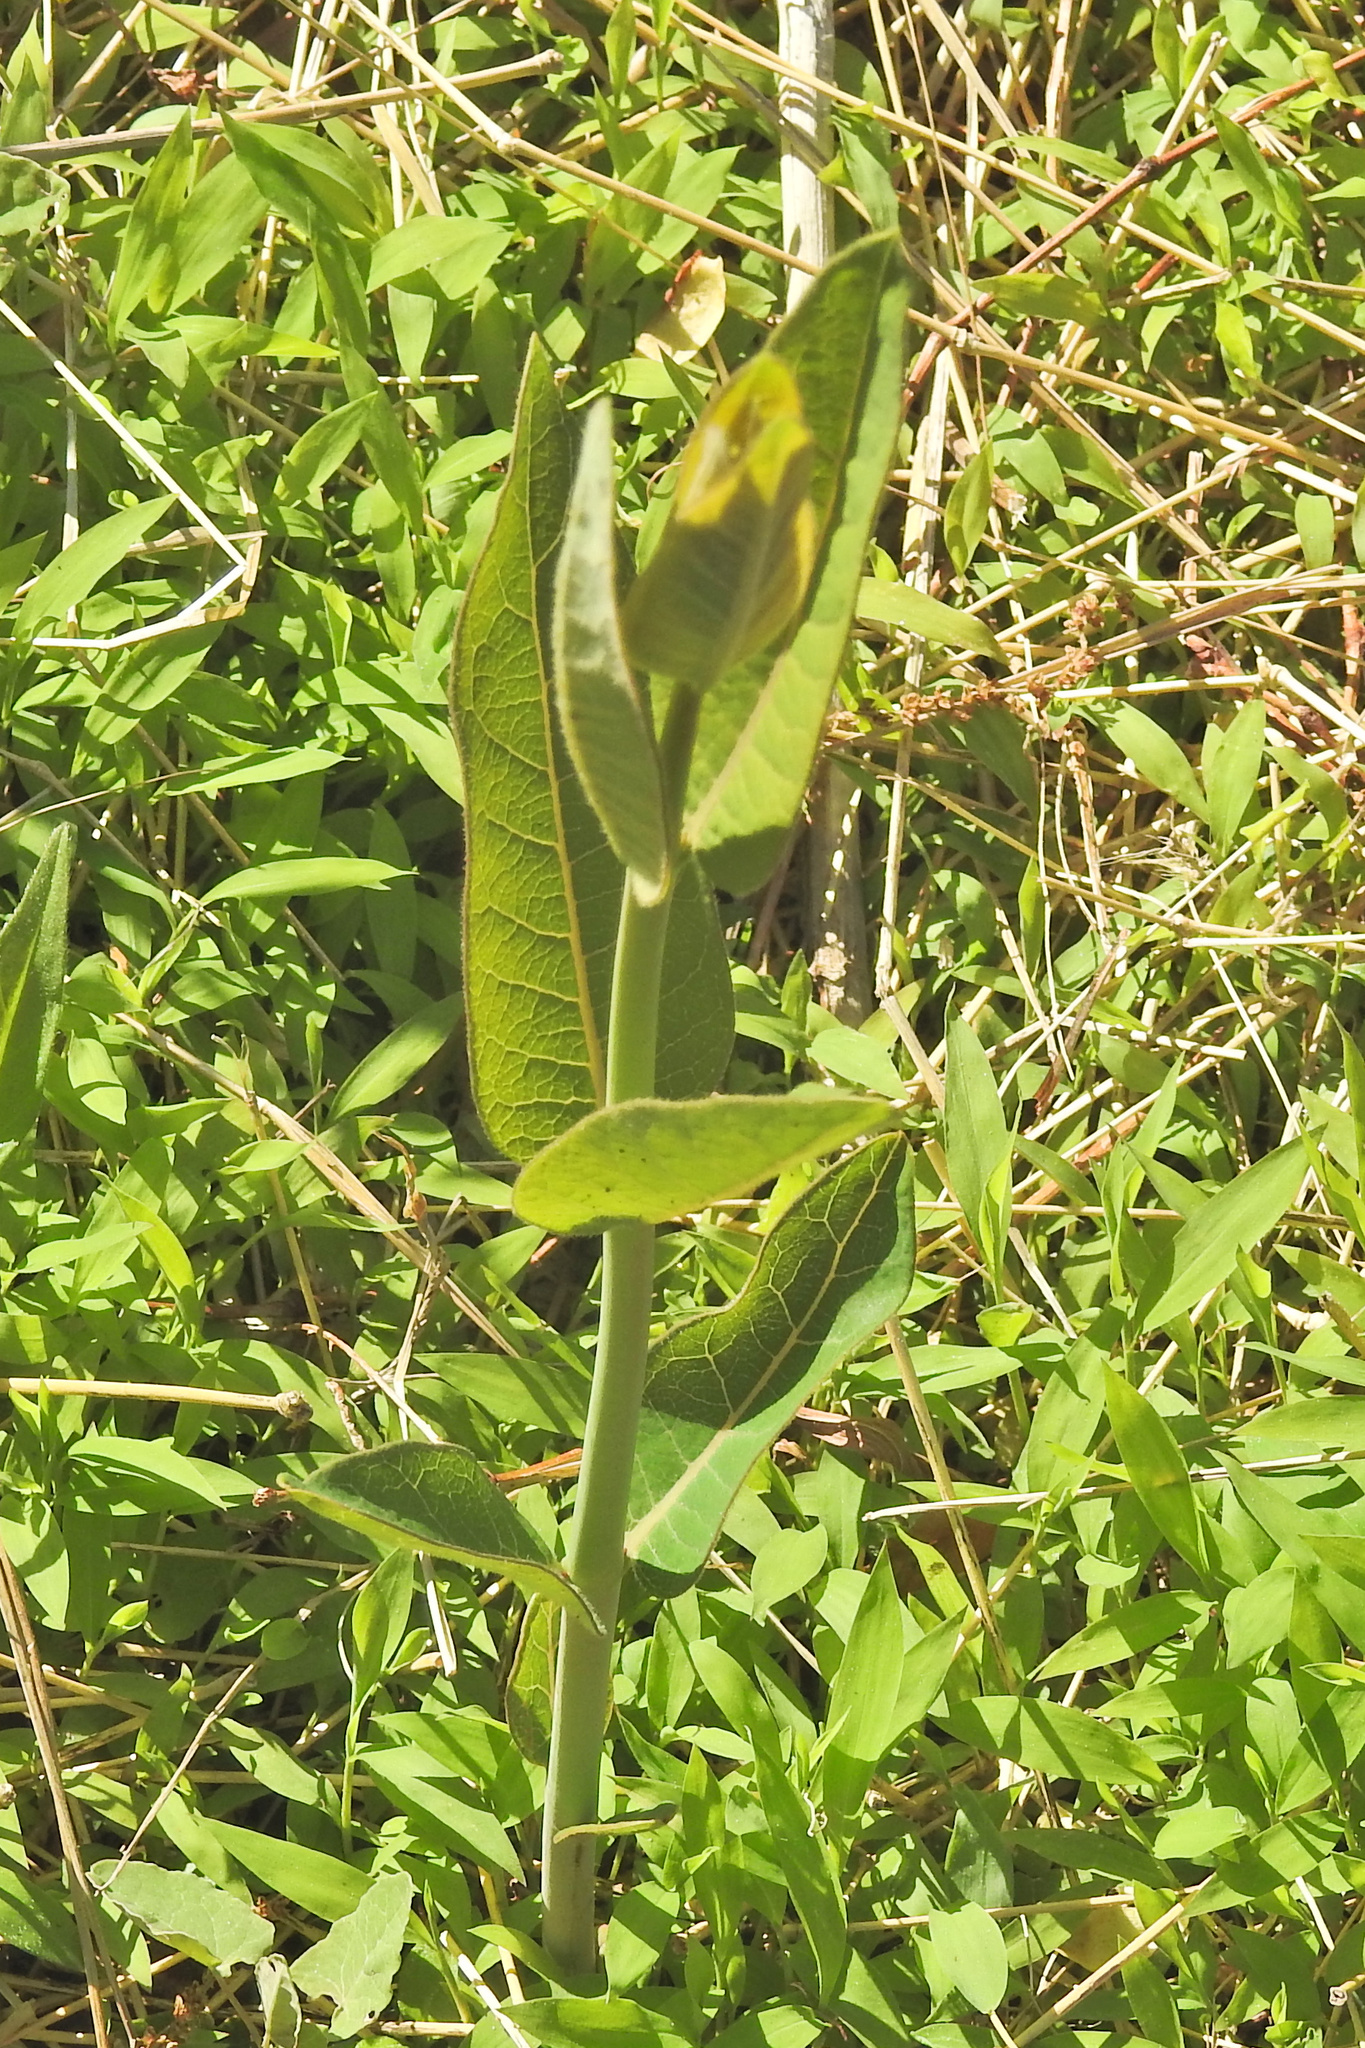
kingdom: Plantae
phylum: Tracheophyta
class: Magnoliopsida
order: Gentianales
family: Apocynaceae
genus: Asclepias
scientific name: Asclepias syriaca
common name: Common milkweed
